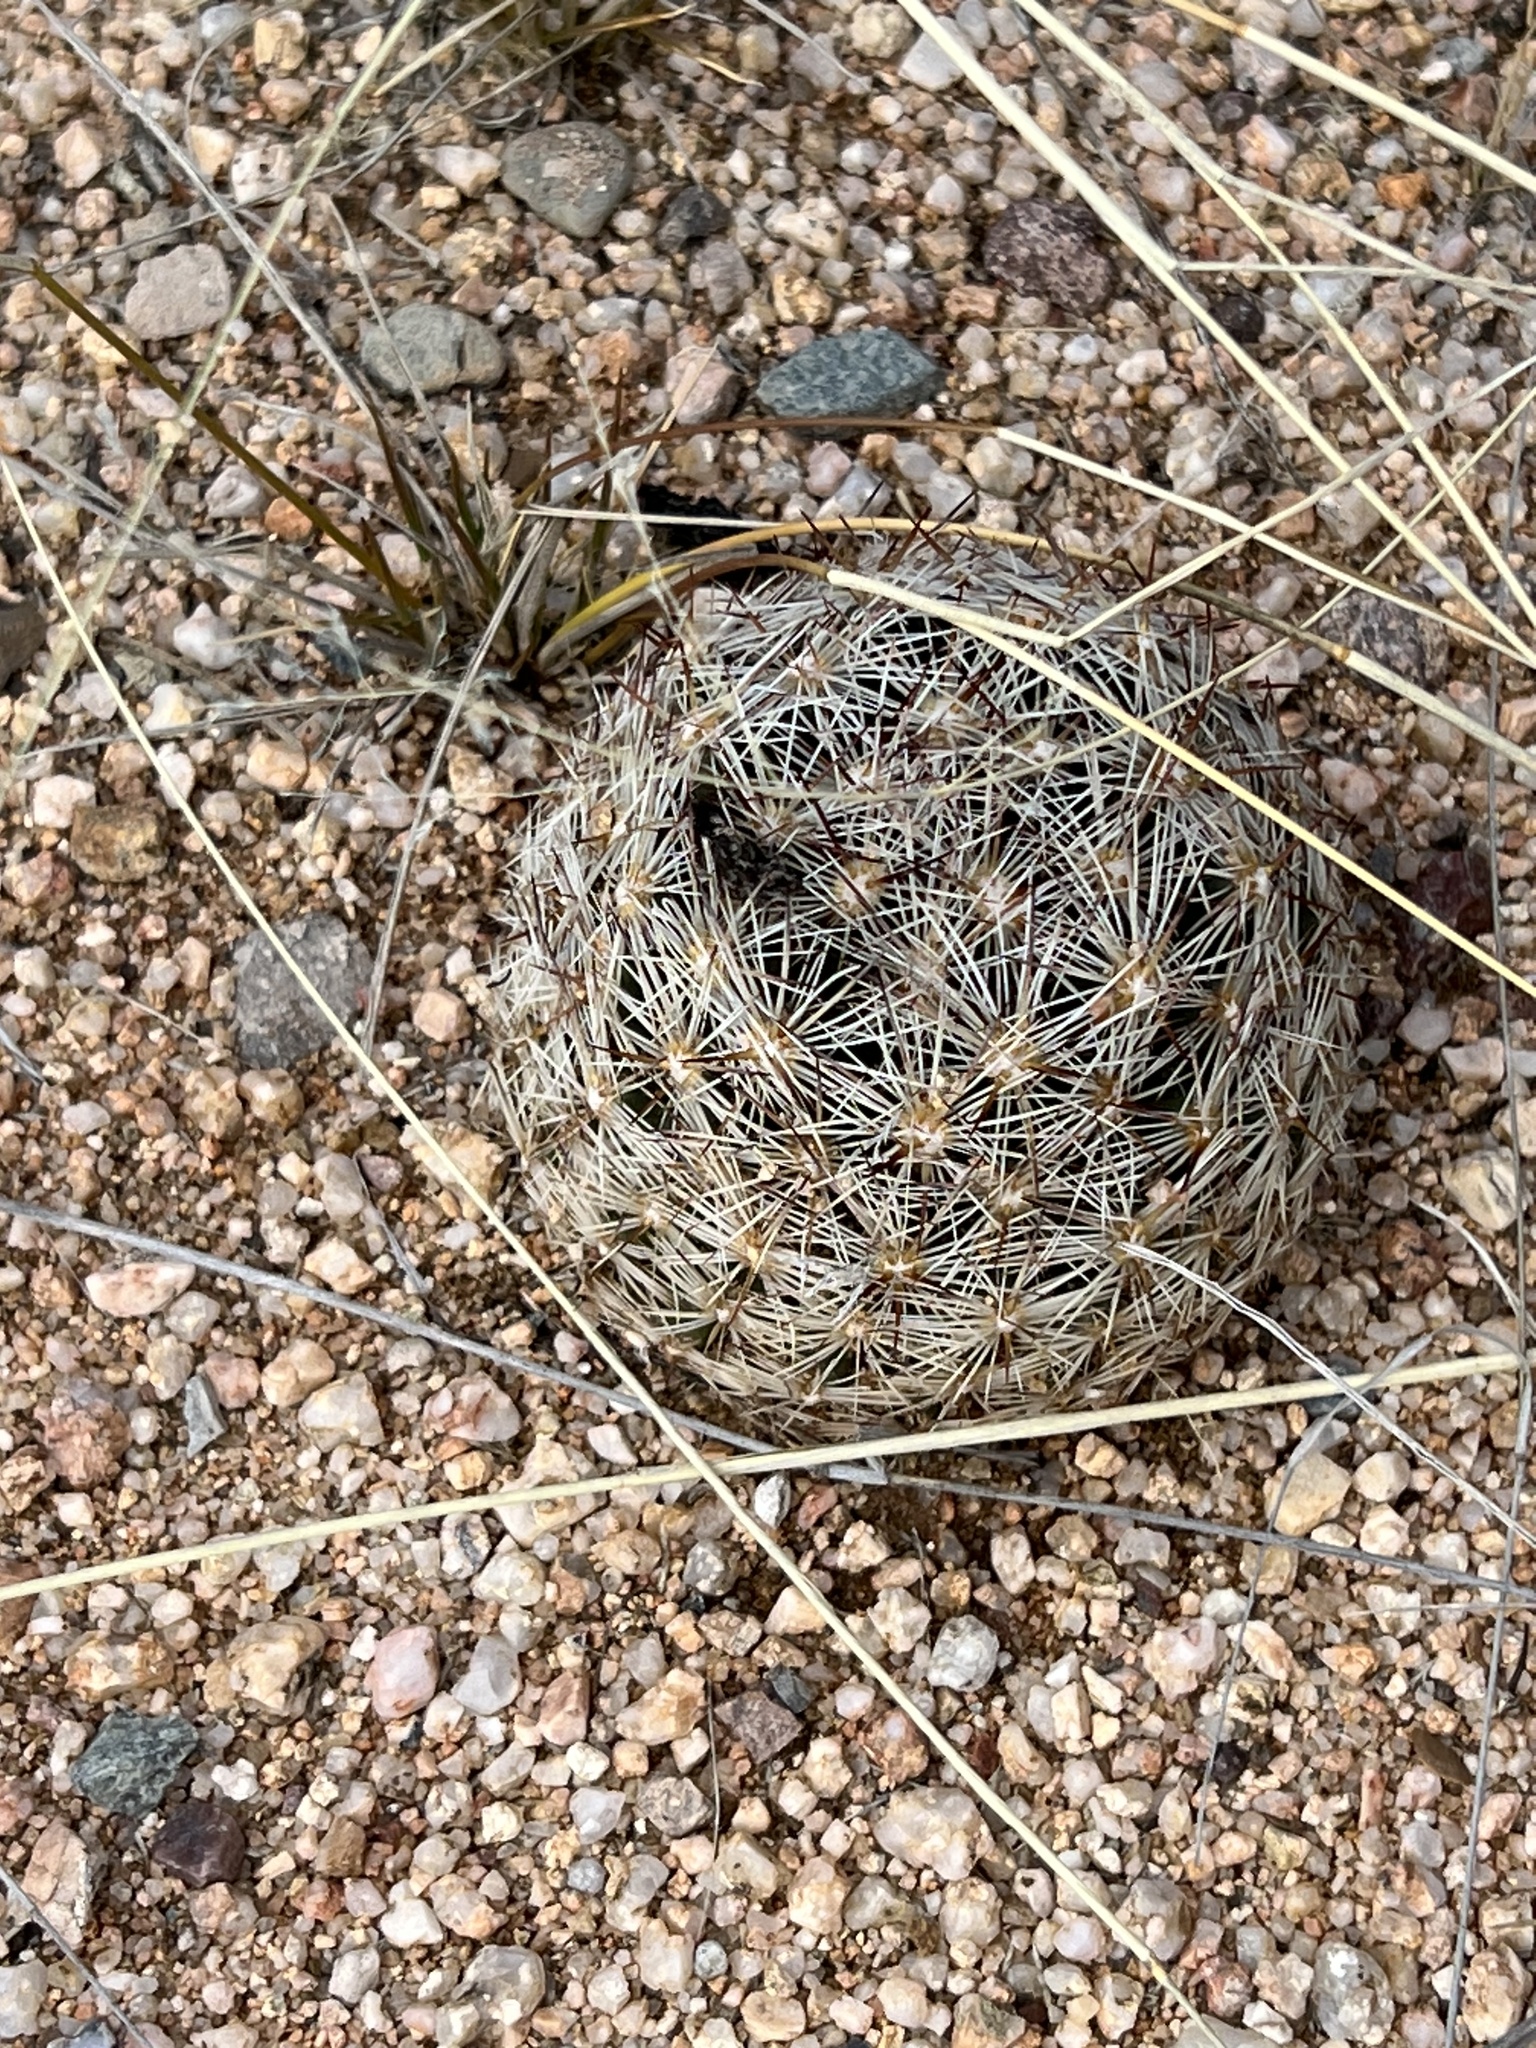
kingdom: Plantae
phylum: Tracheophyta
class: Magnoliopsida
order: Caryophyllales
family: Cactaceae
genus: Pelecyphora
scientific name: Pelecyphora vivipara
